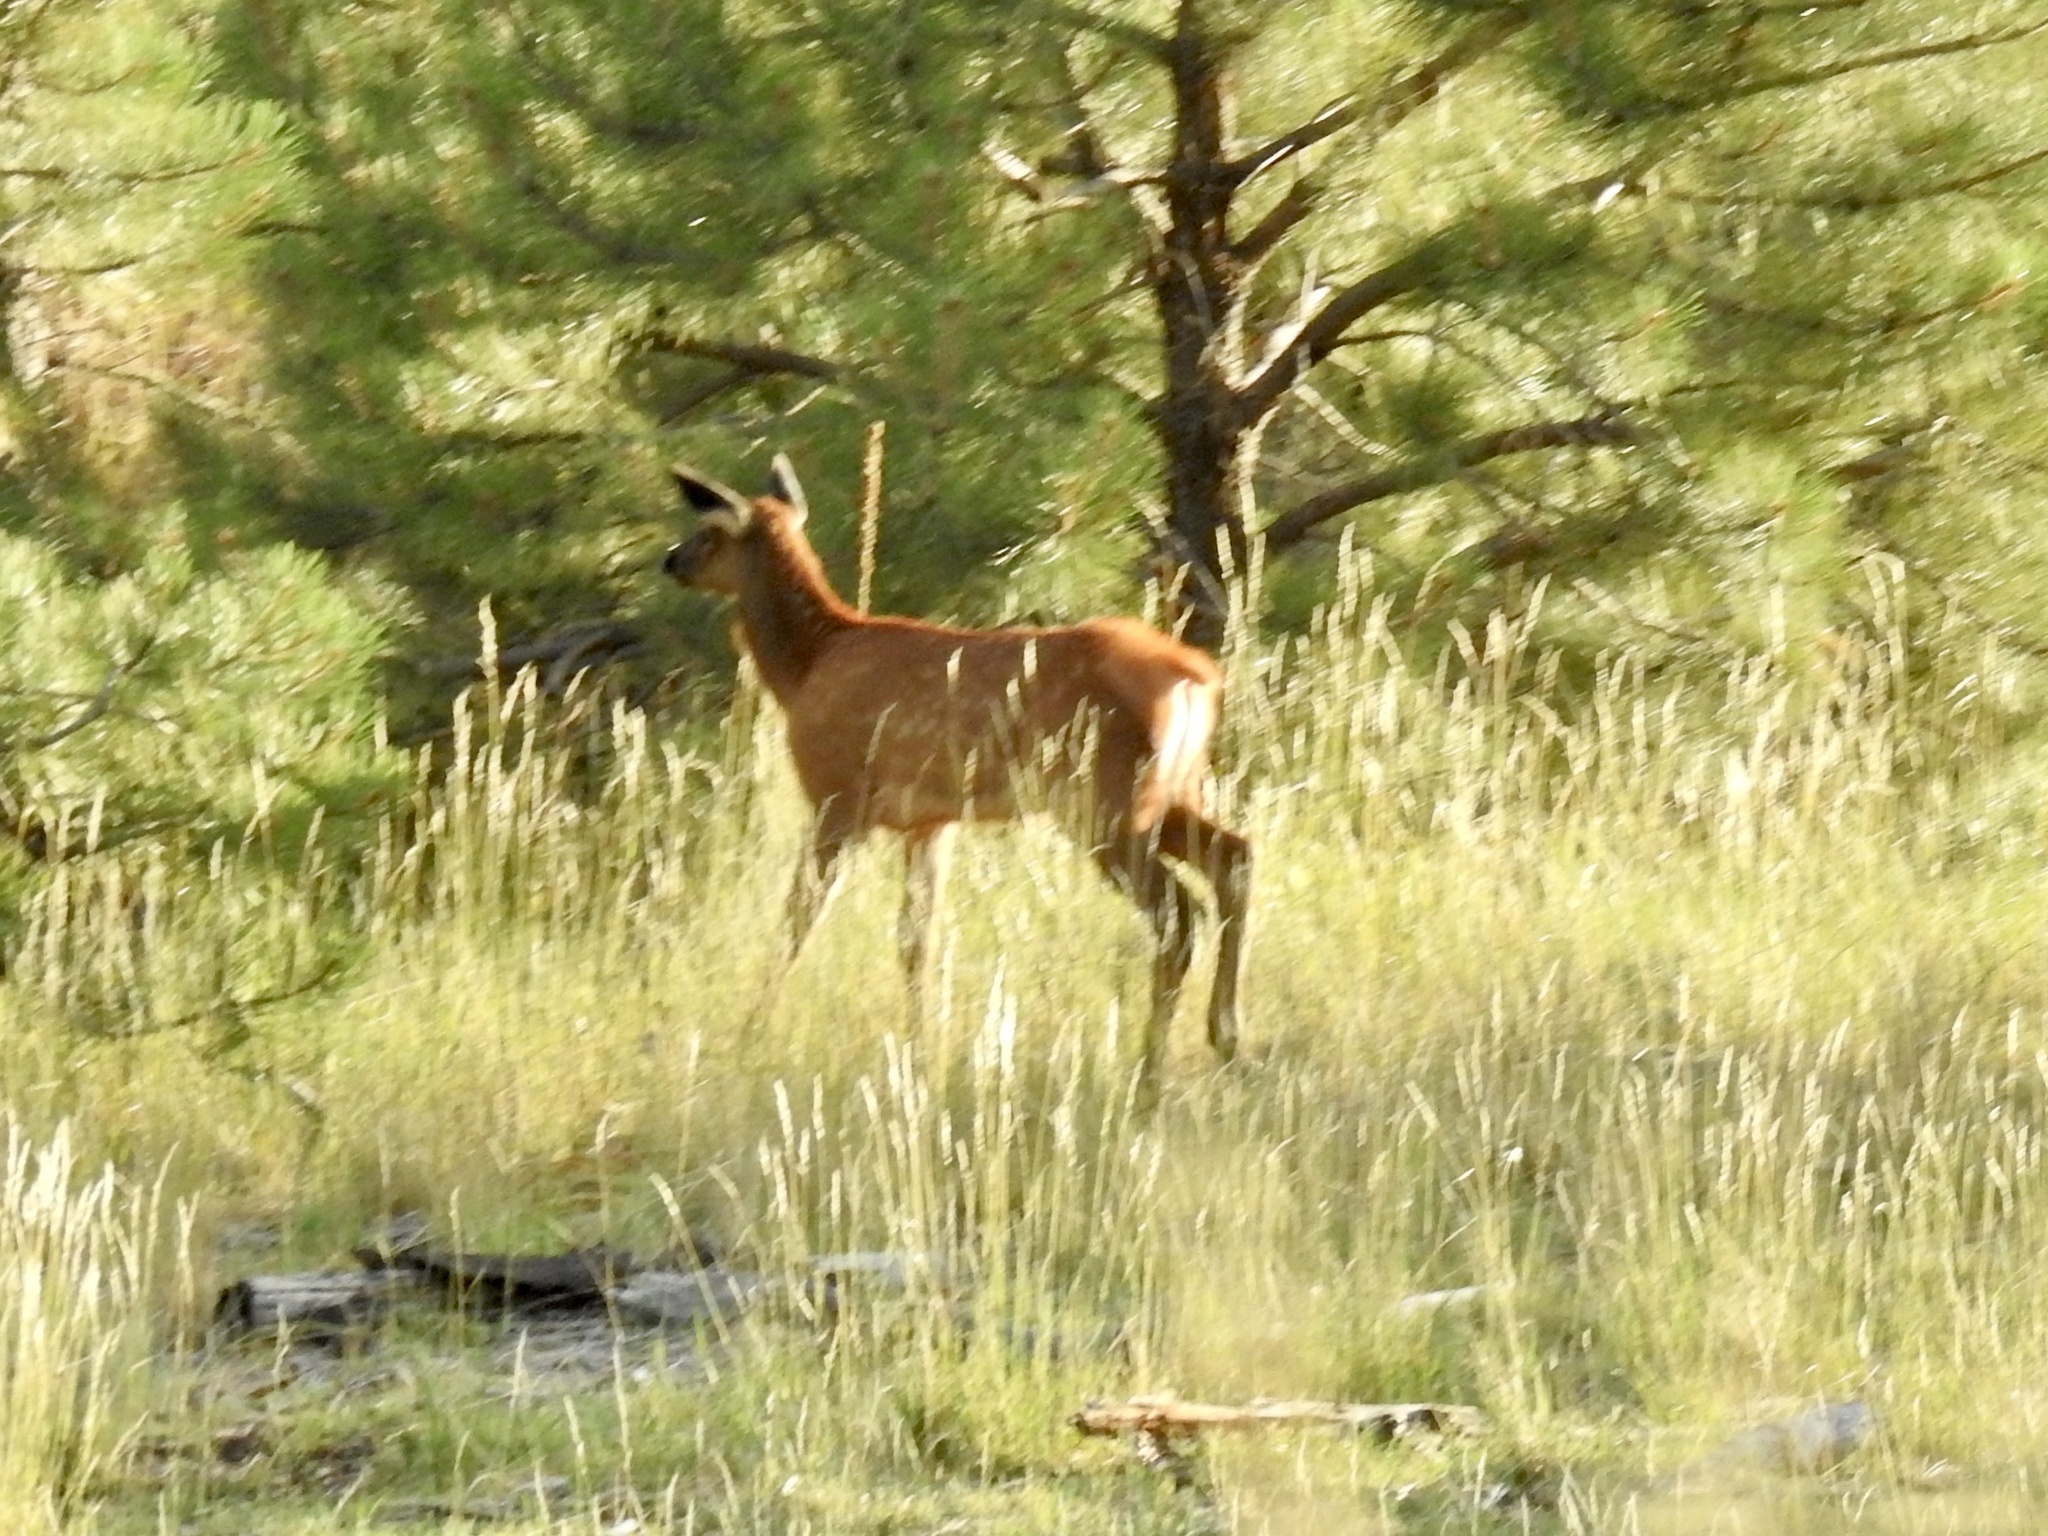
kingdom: Animalia
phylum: Chordata
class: Mammalia
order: Artiodactyla
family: Cervidae
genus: Cervus
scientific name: Cervus elaphus
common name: Red deer
